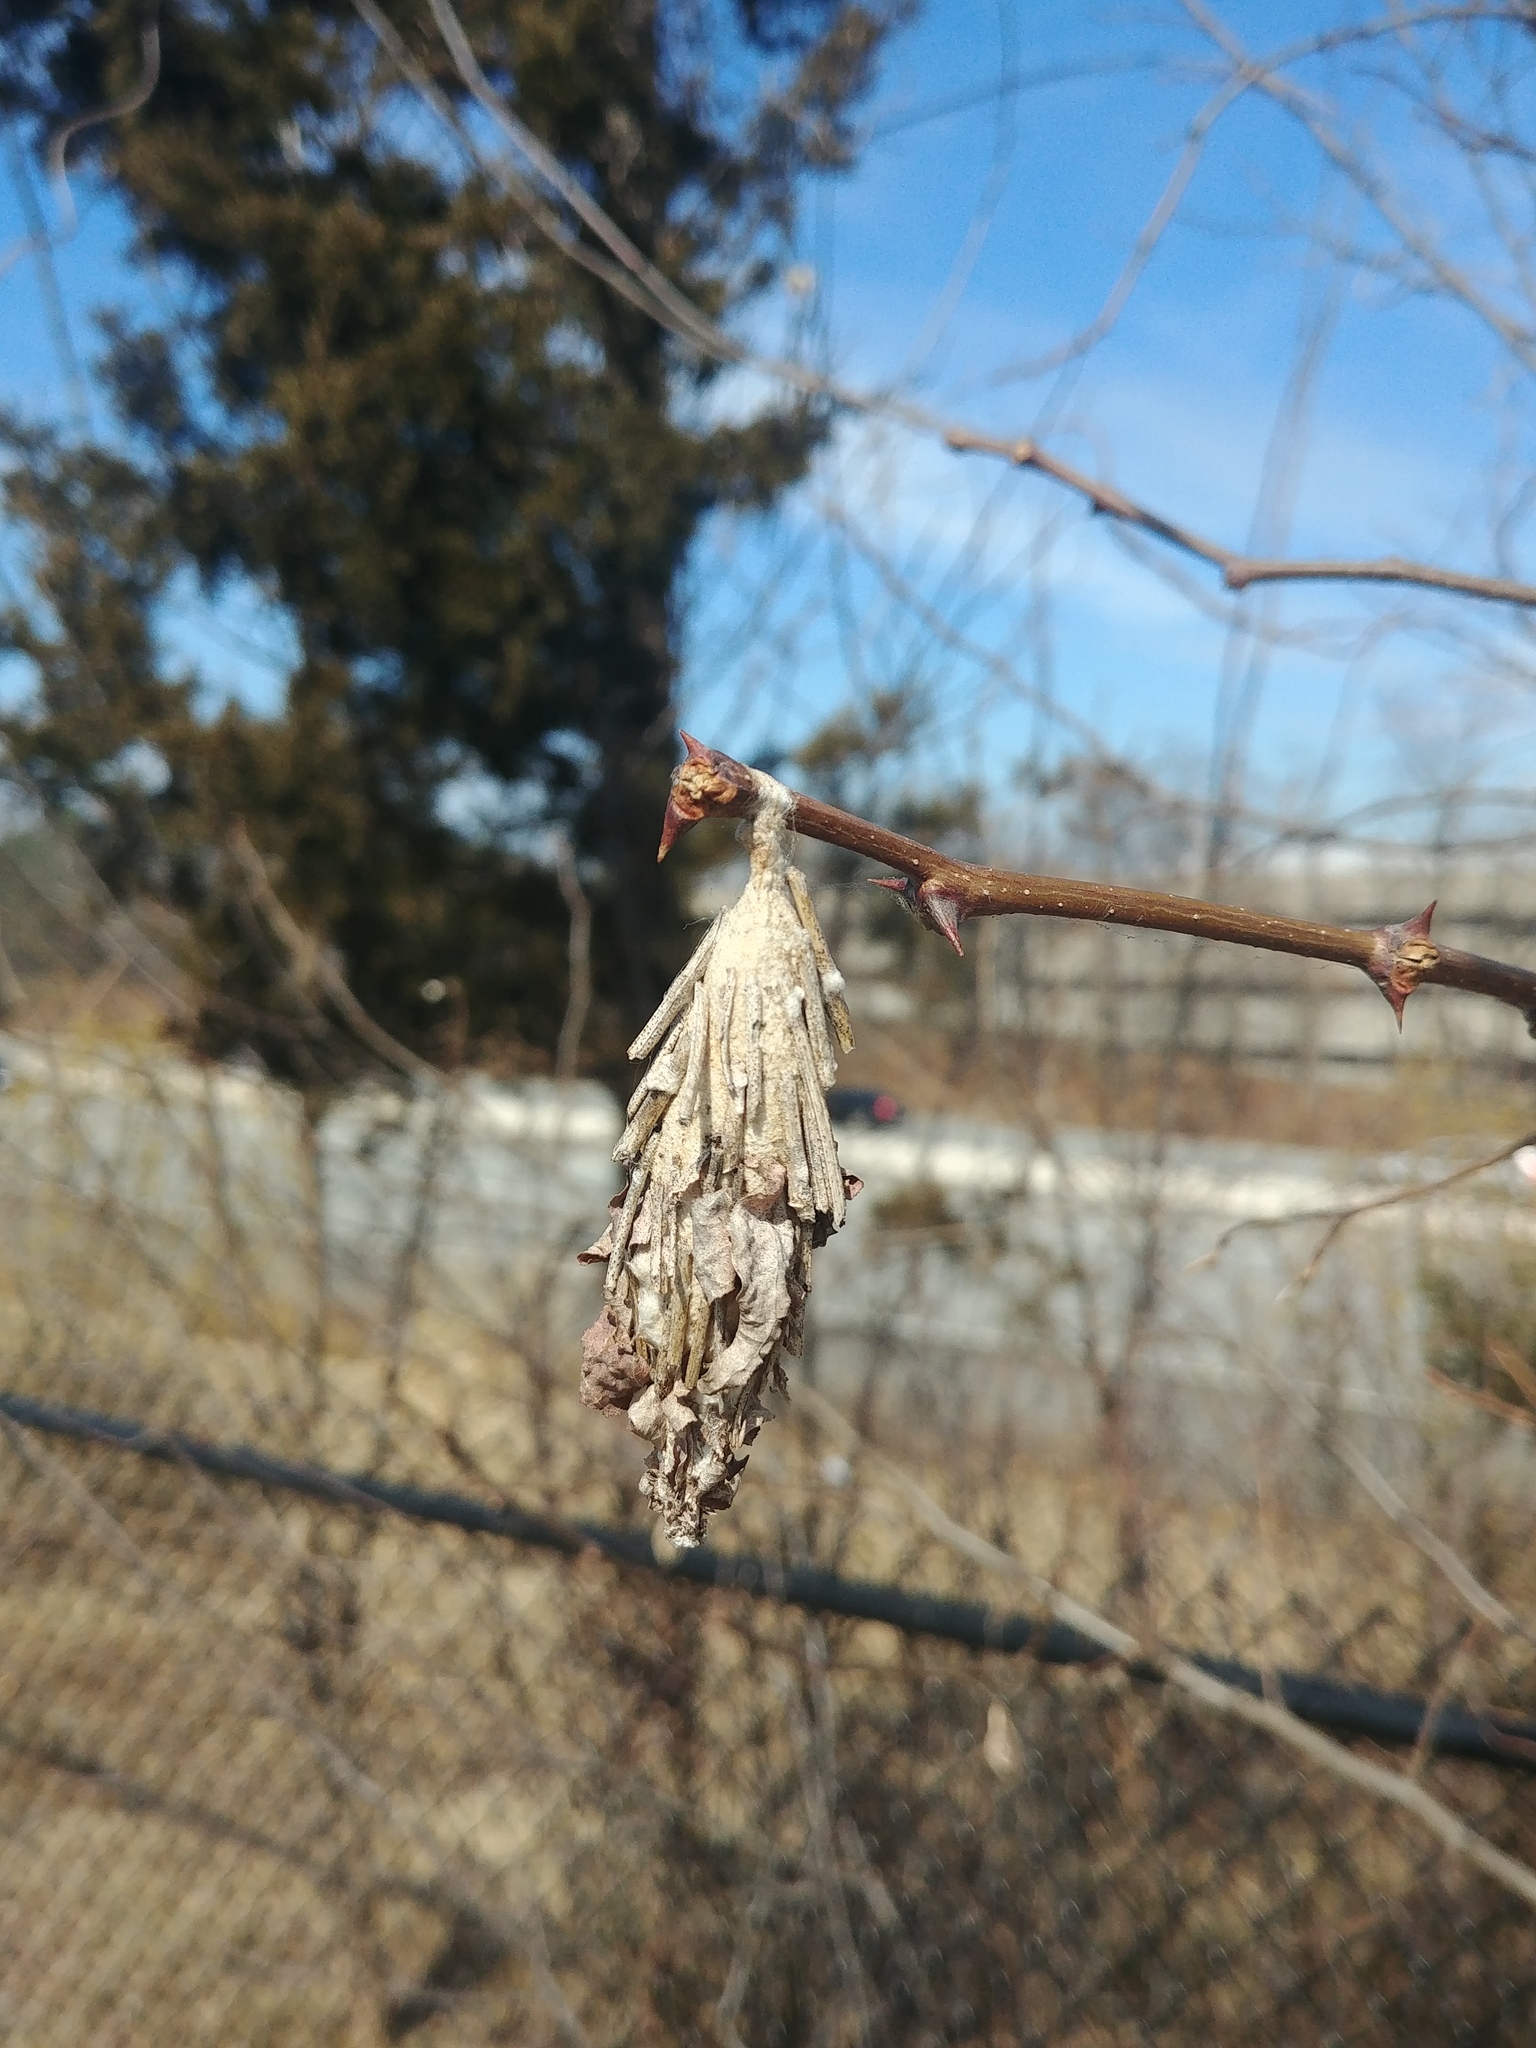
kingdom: Animalia
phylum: Arthropoda
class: Insecta
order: Lepidoptera
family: Psychidae
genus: Thyridopteryx
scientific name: Thyridopteryx ephemeraeformis
